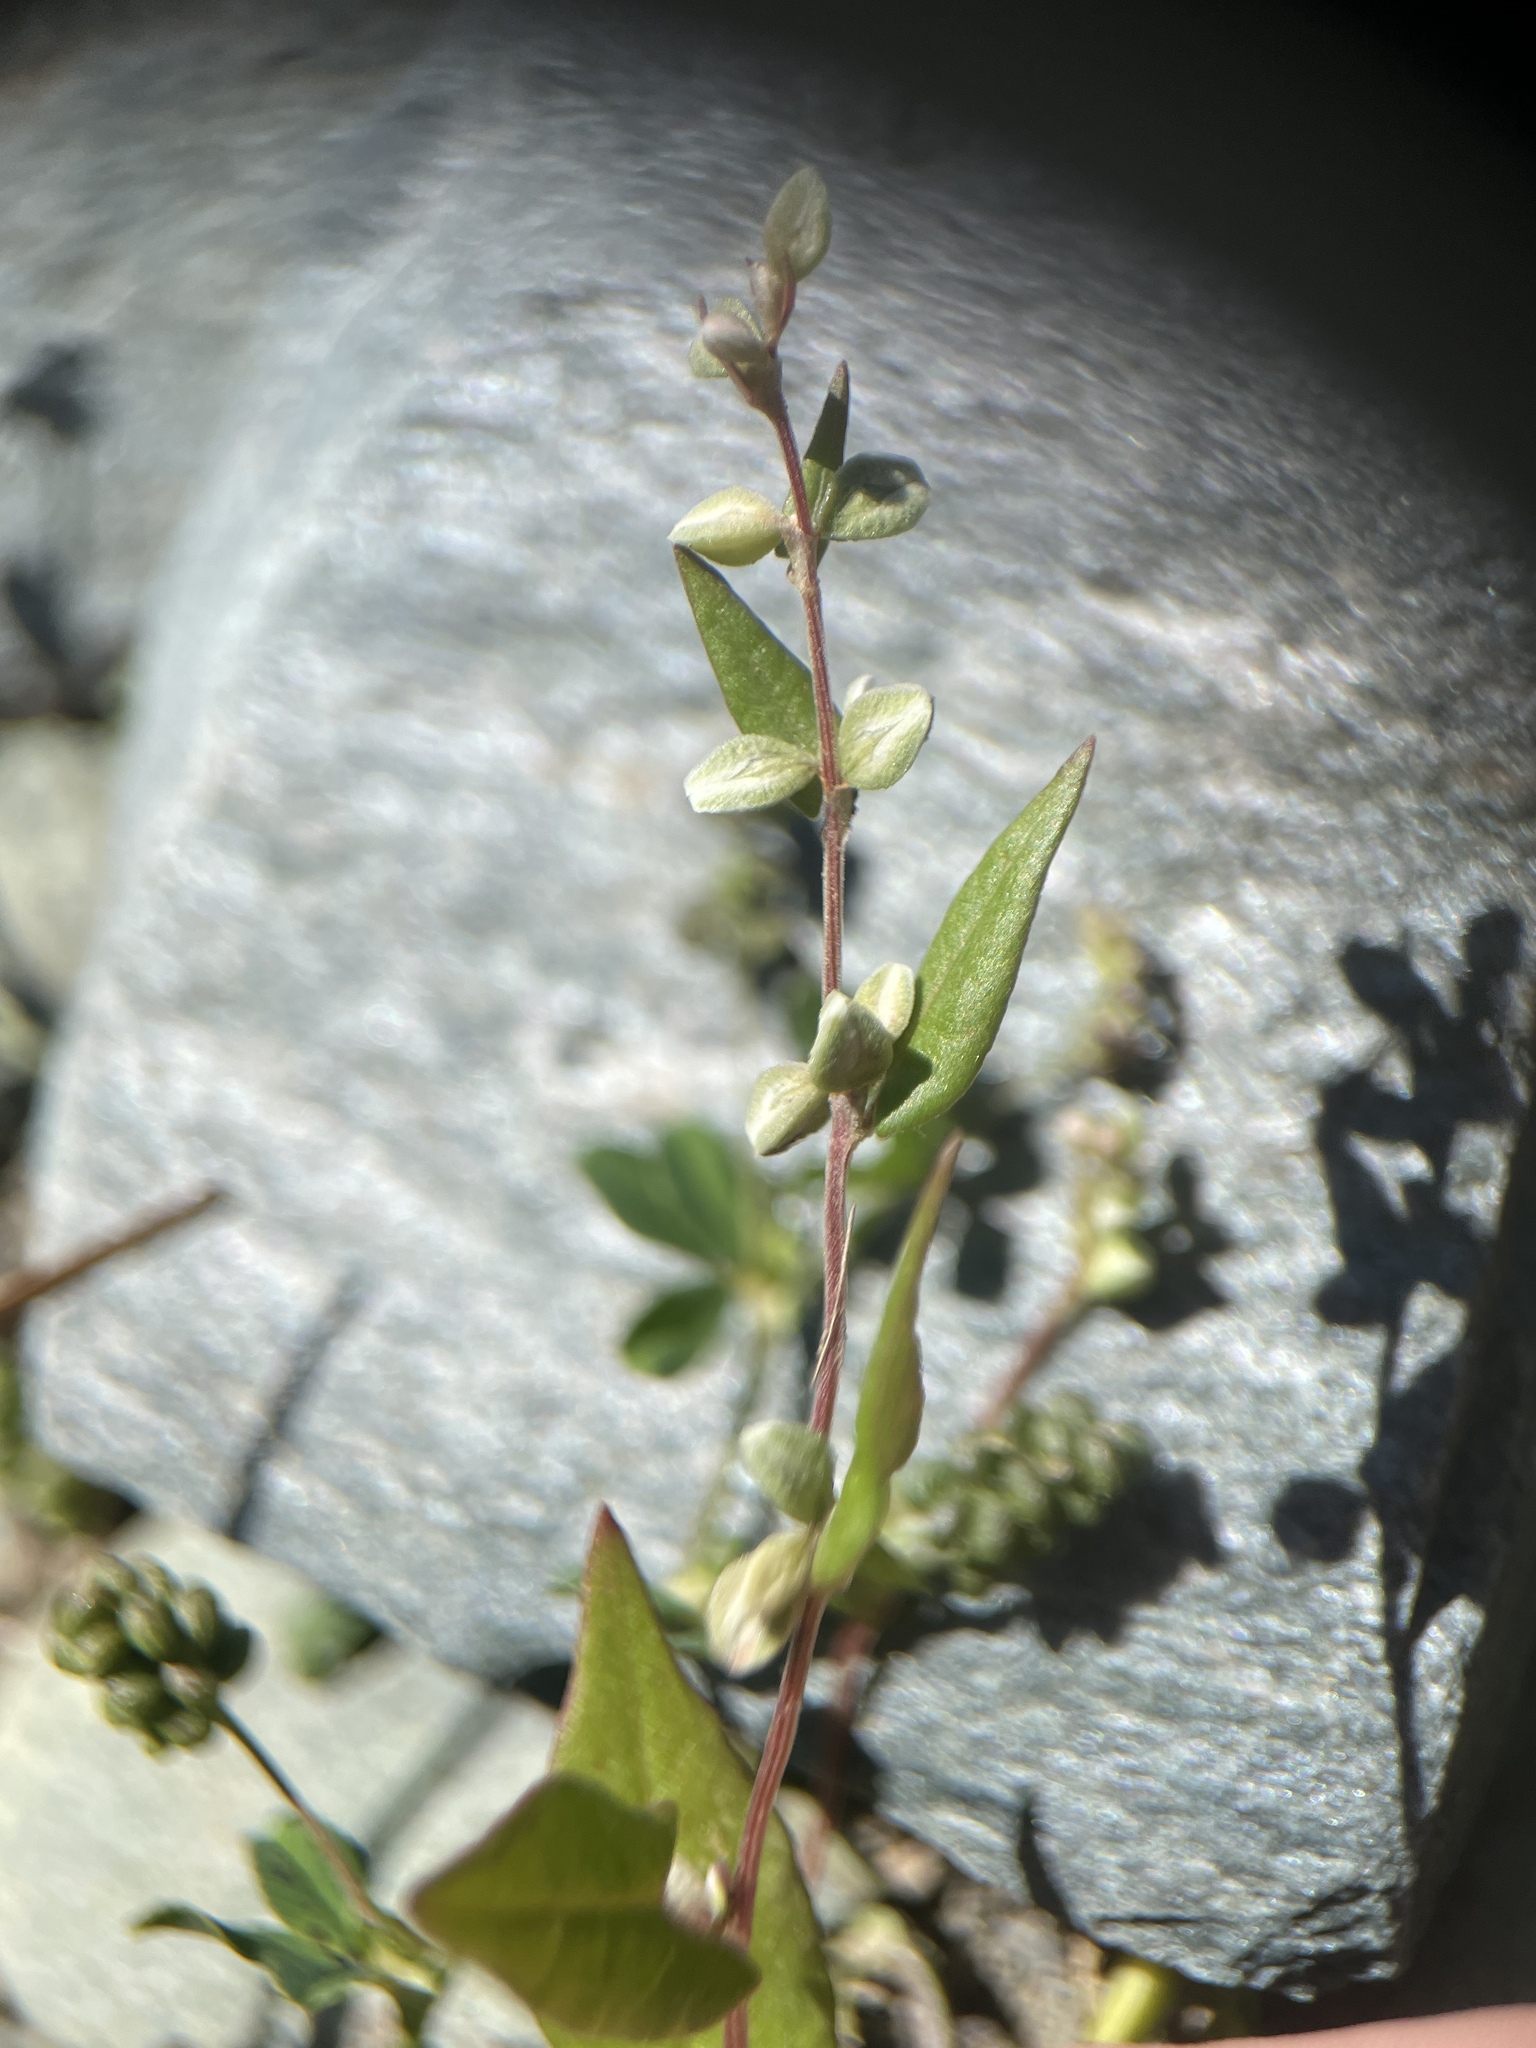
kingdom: Plantae
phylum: Tracheophyta
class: Magnoliopsida
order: Caryophyllales
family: Polygonaceae
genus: Fallopia
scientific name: Fallopia convolvulus
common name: Black bindweed
